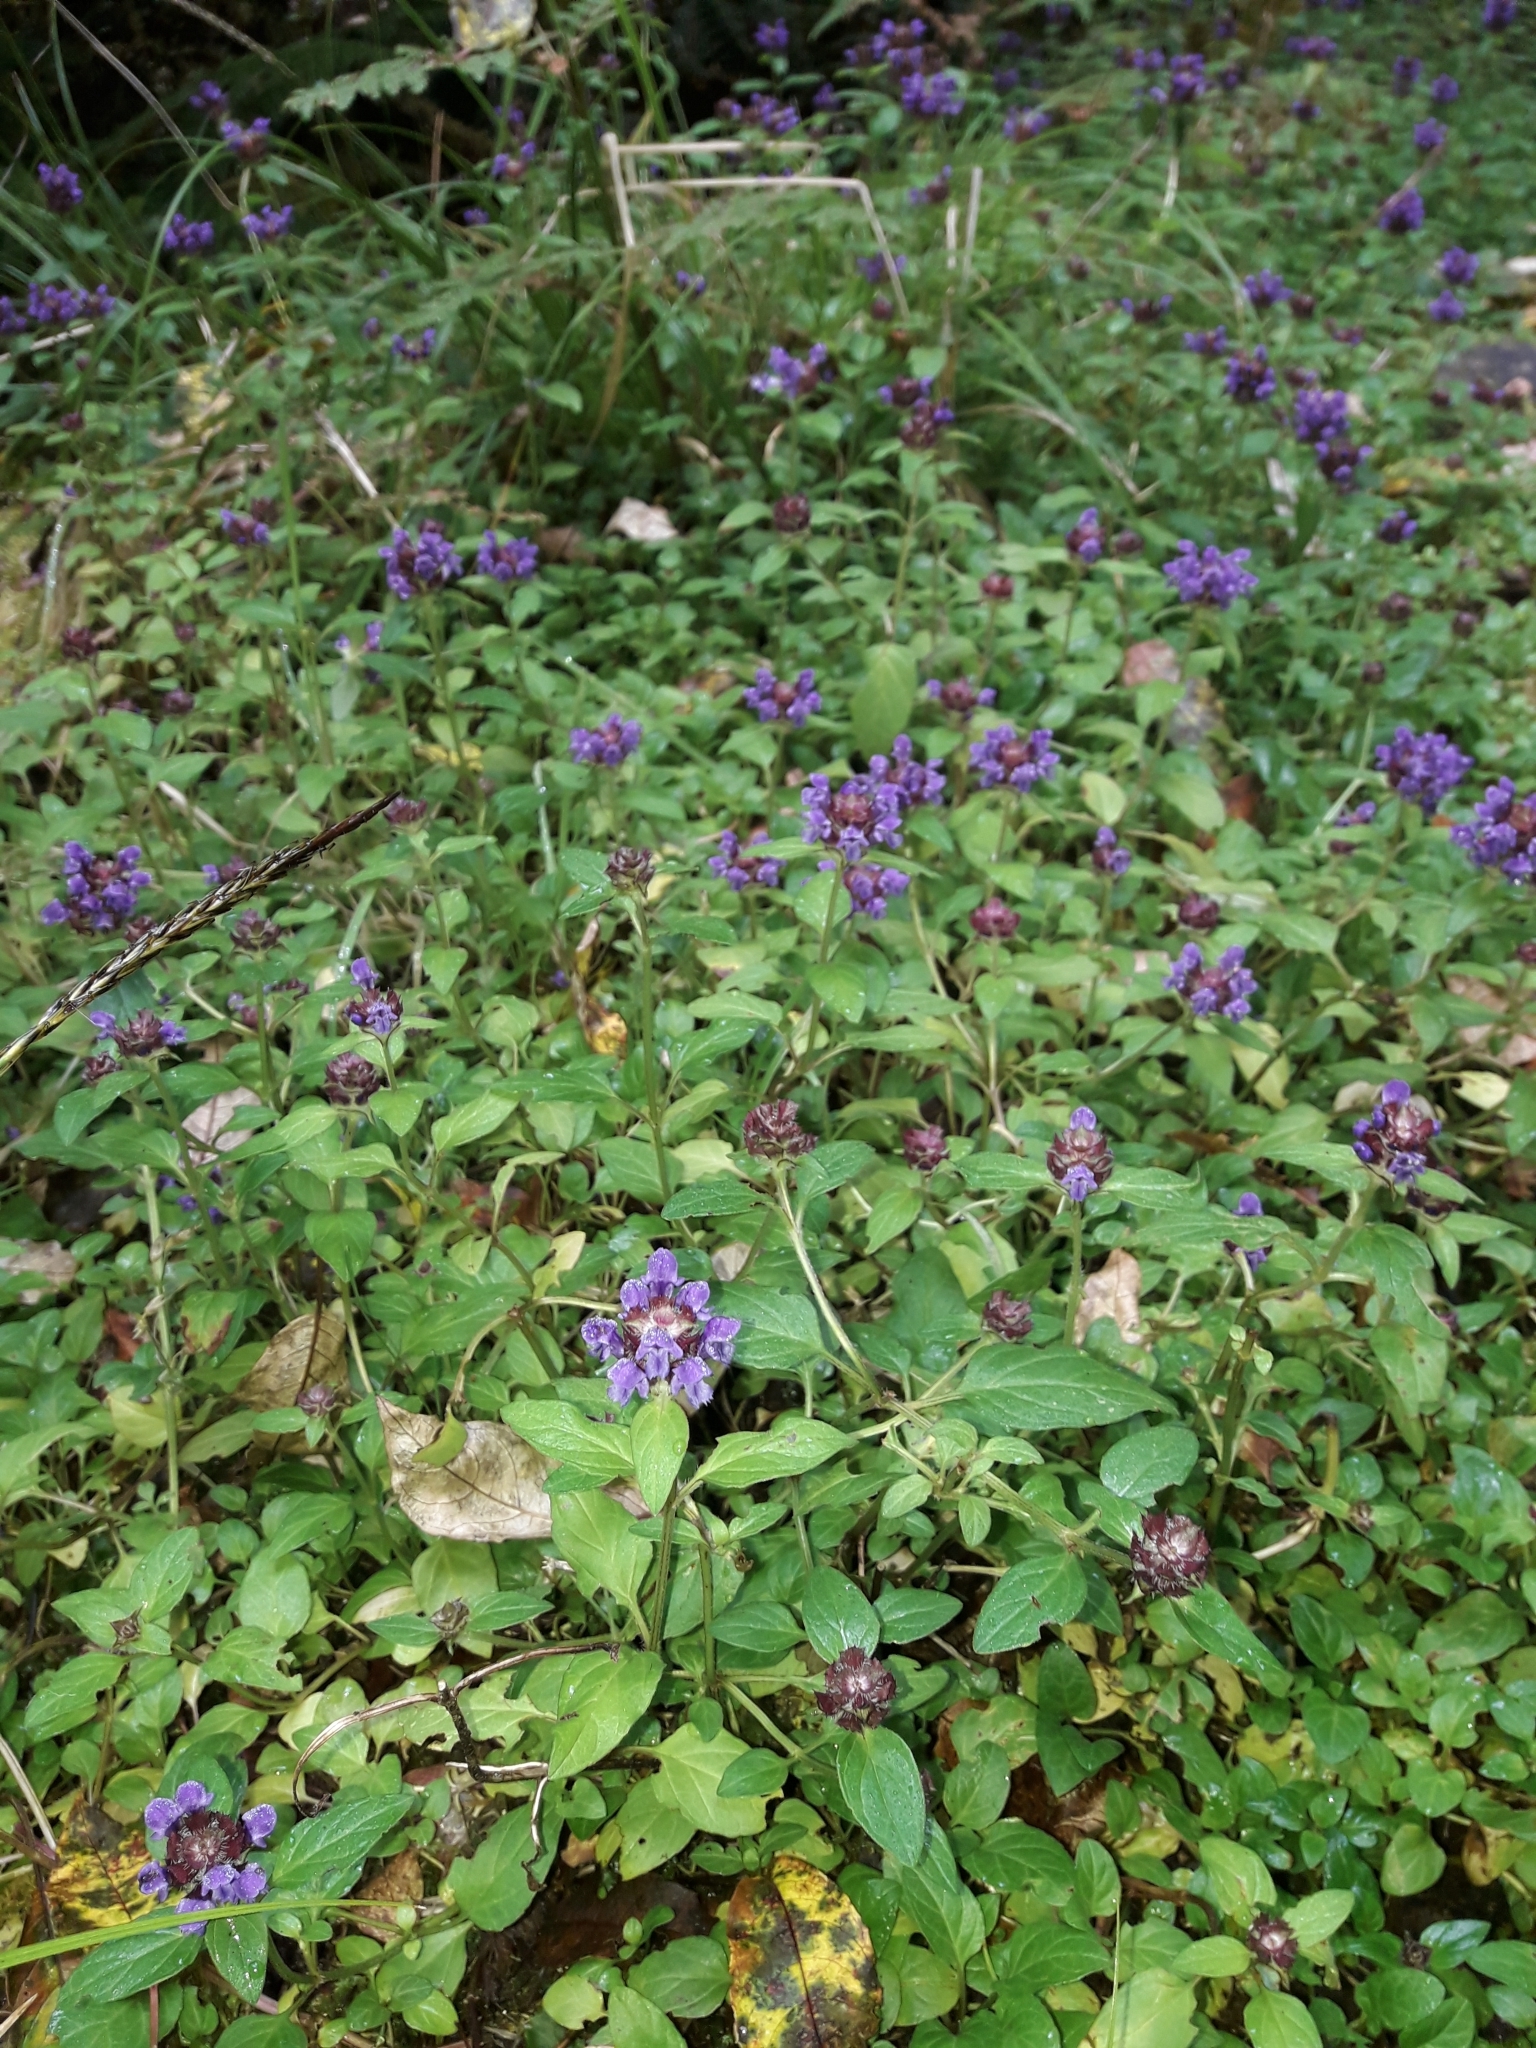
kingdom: Plantae
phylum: Tracheophyta
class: Magnoliopsida
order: Lamiales
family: Lamiaceae
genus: Prunella
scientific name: Prunella vulgaris
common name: Heal-all
